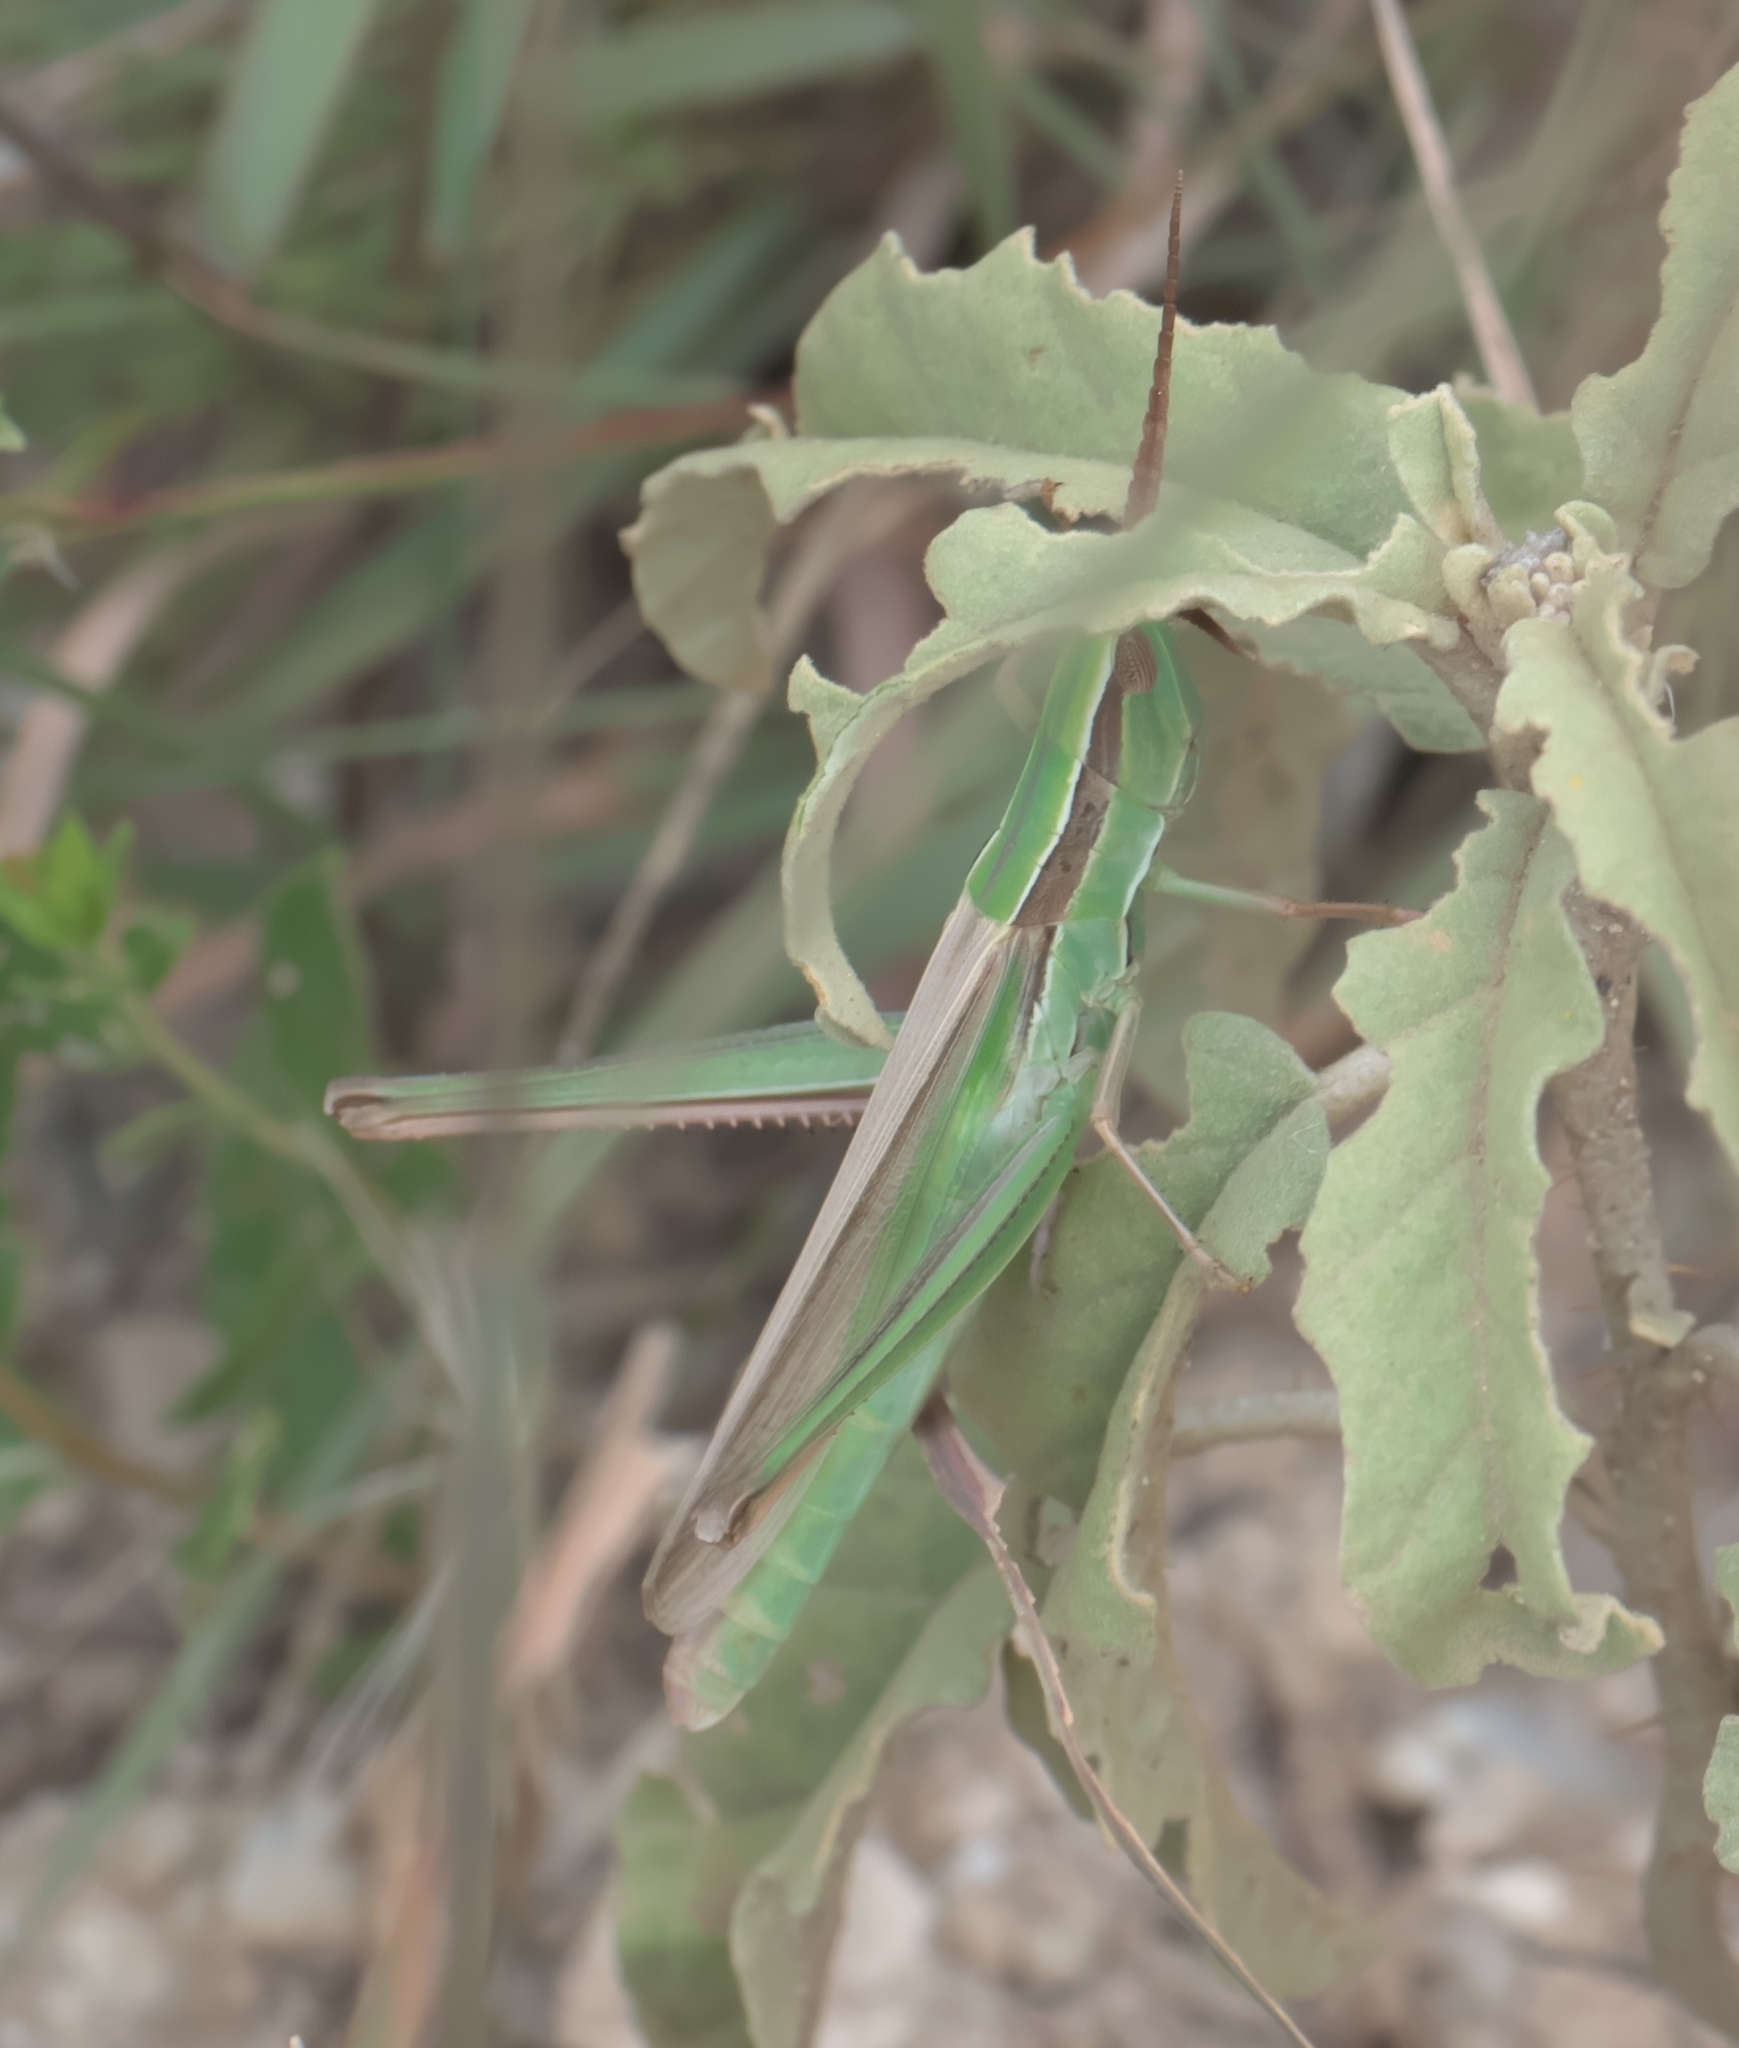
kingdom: Animalia
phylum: Arthropoda
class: Insecta
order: Orthoptera
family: Acrididae
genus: Mermiria
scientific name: Mermiria picta
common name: Lively mermiria grasshopper
